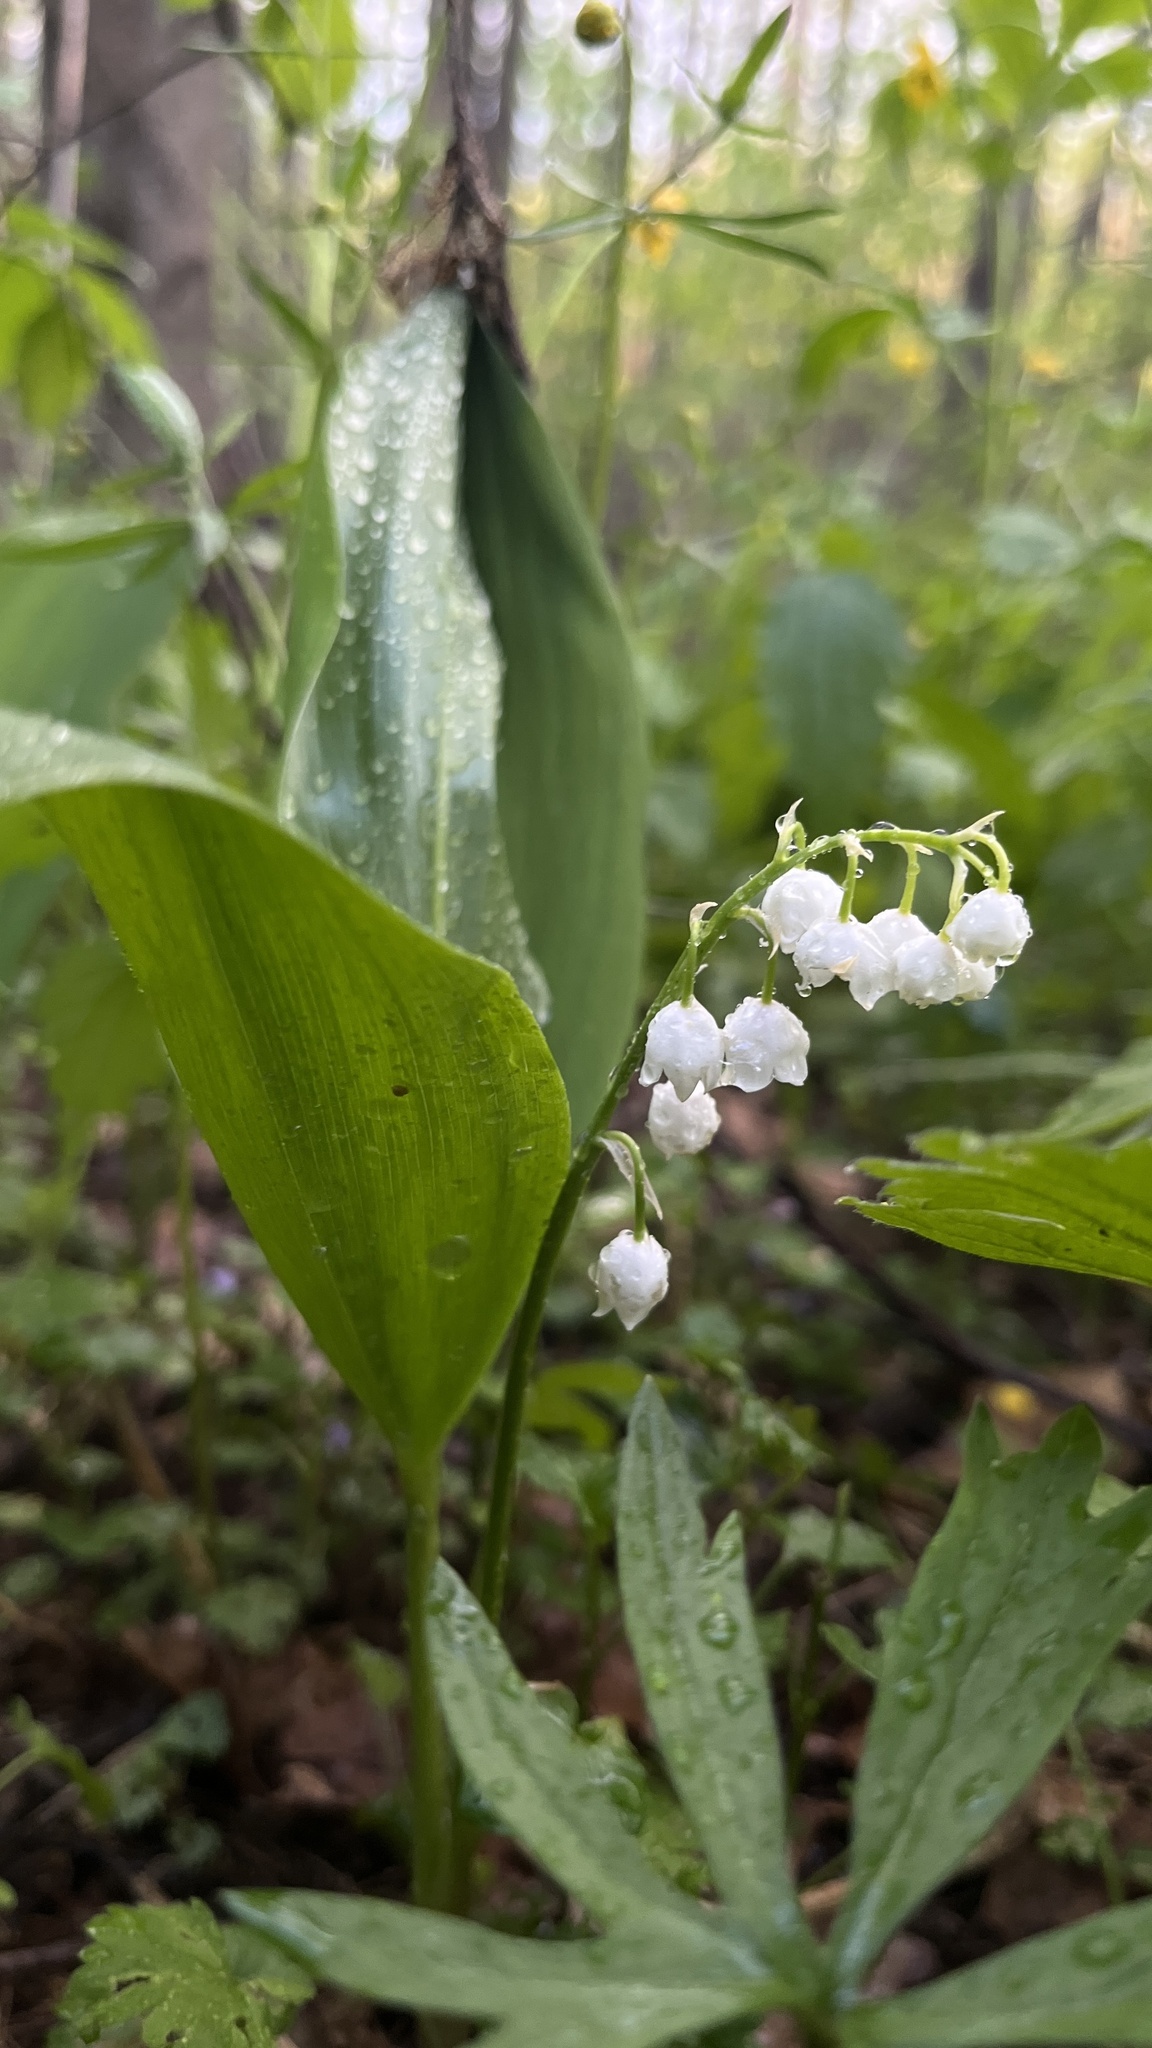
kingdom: Plantae
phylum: Tracheophyta
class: Liliopsida
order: Asparagales
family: Asparagaceae
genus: Convallaria
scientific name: Convallaria majalis
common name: Lily-of-the-valley
